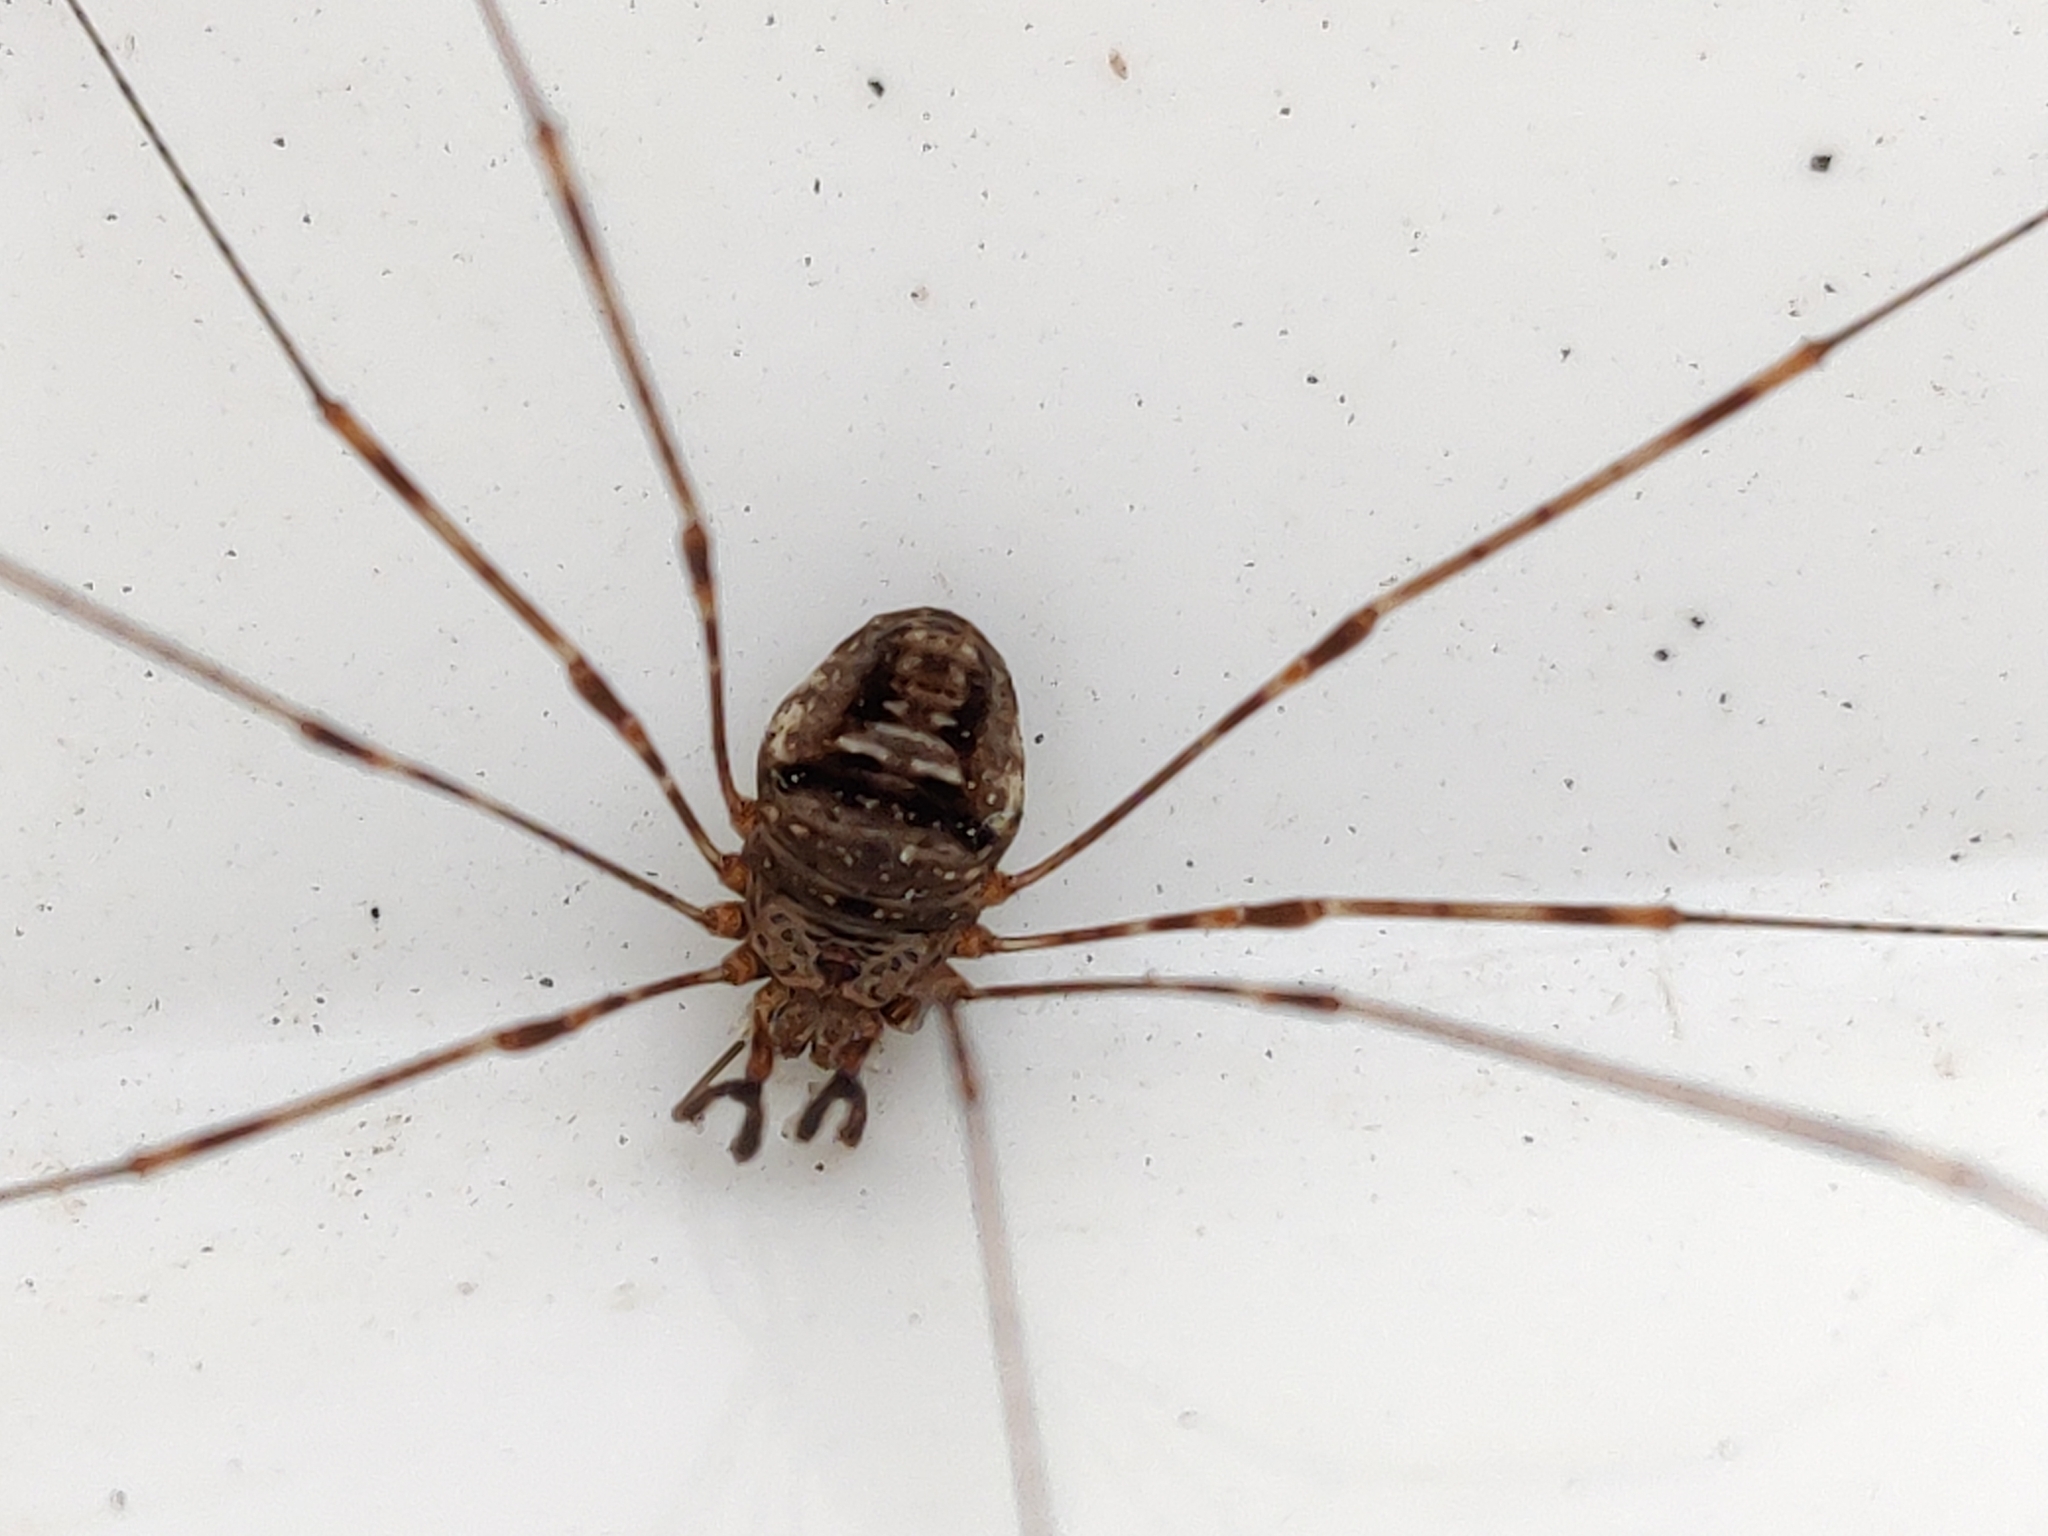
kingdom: Animalia
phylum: Arthropoda
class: Arachnida
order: Opiliones
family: Phalangiidae
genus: Dicranopalpus
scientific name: Dicranopalpus ramosus
